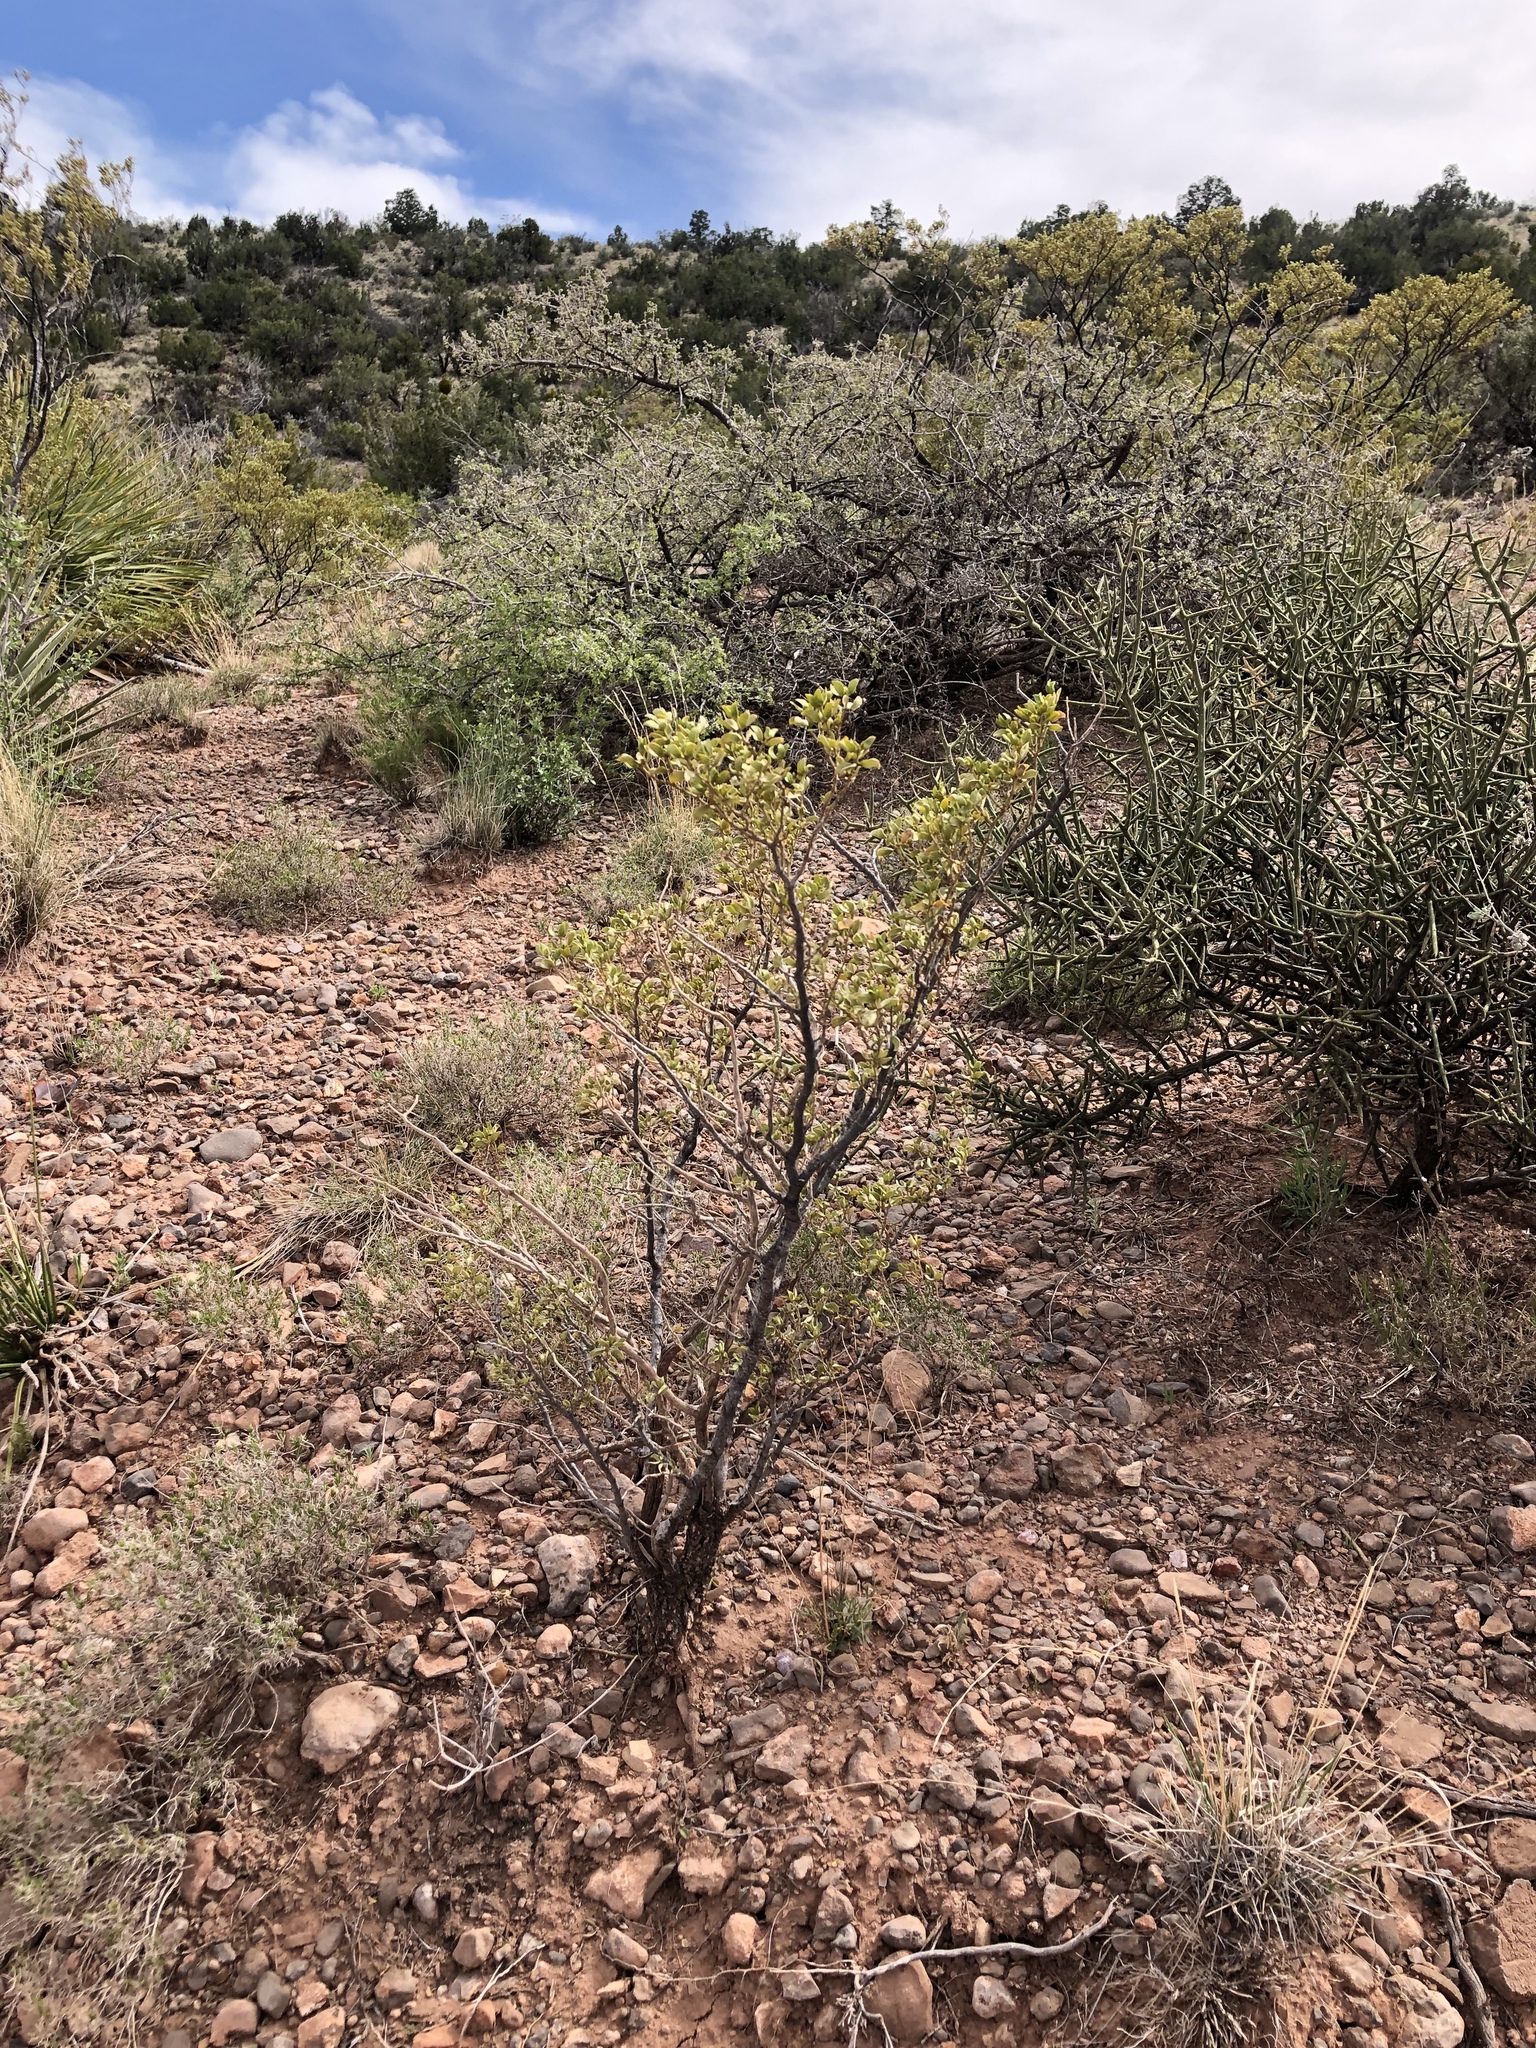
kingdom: Plantae
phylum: Tracheophyta
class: Magnoliopsida
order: Zygophyllales
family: Zygophyllaceae
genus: Larrea
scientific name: Larrea tridentata
